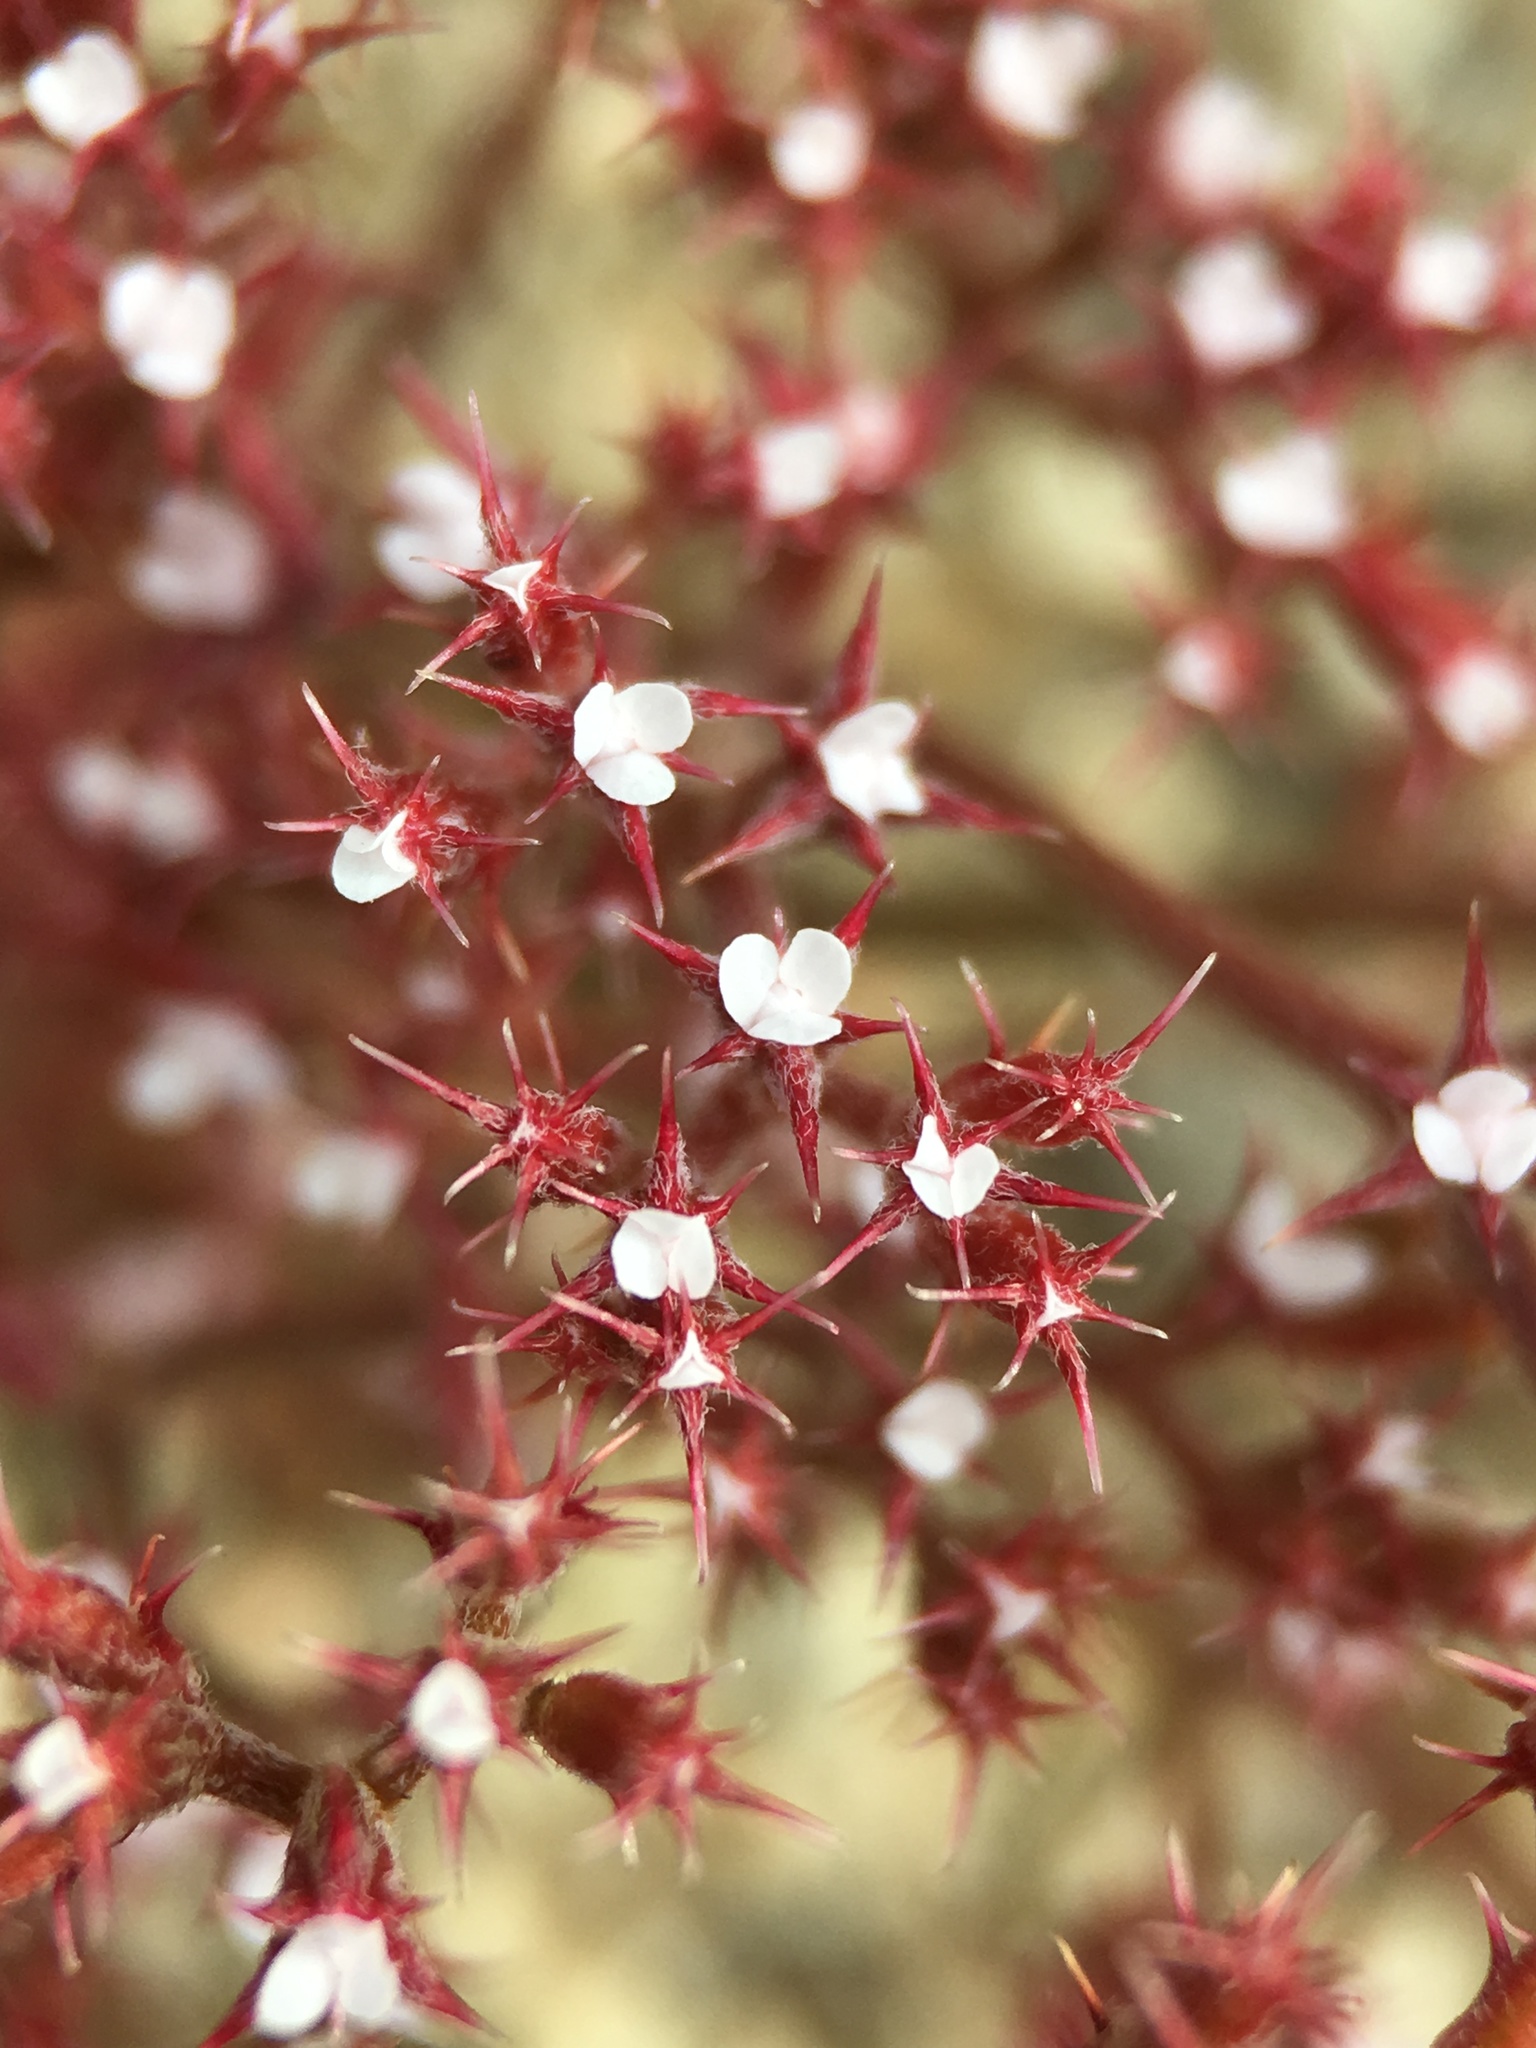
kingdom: Plantae
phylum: Tracheophyta
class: Magnoliopsida
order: Caryophyllales
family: Polygonaceae
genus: Chorizanthe
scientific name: Chorizanthe leptotheca
